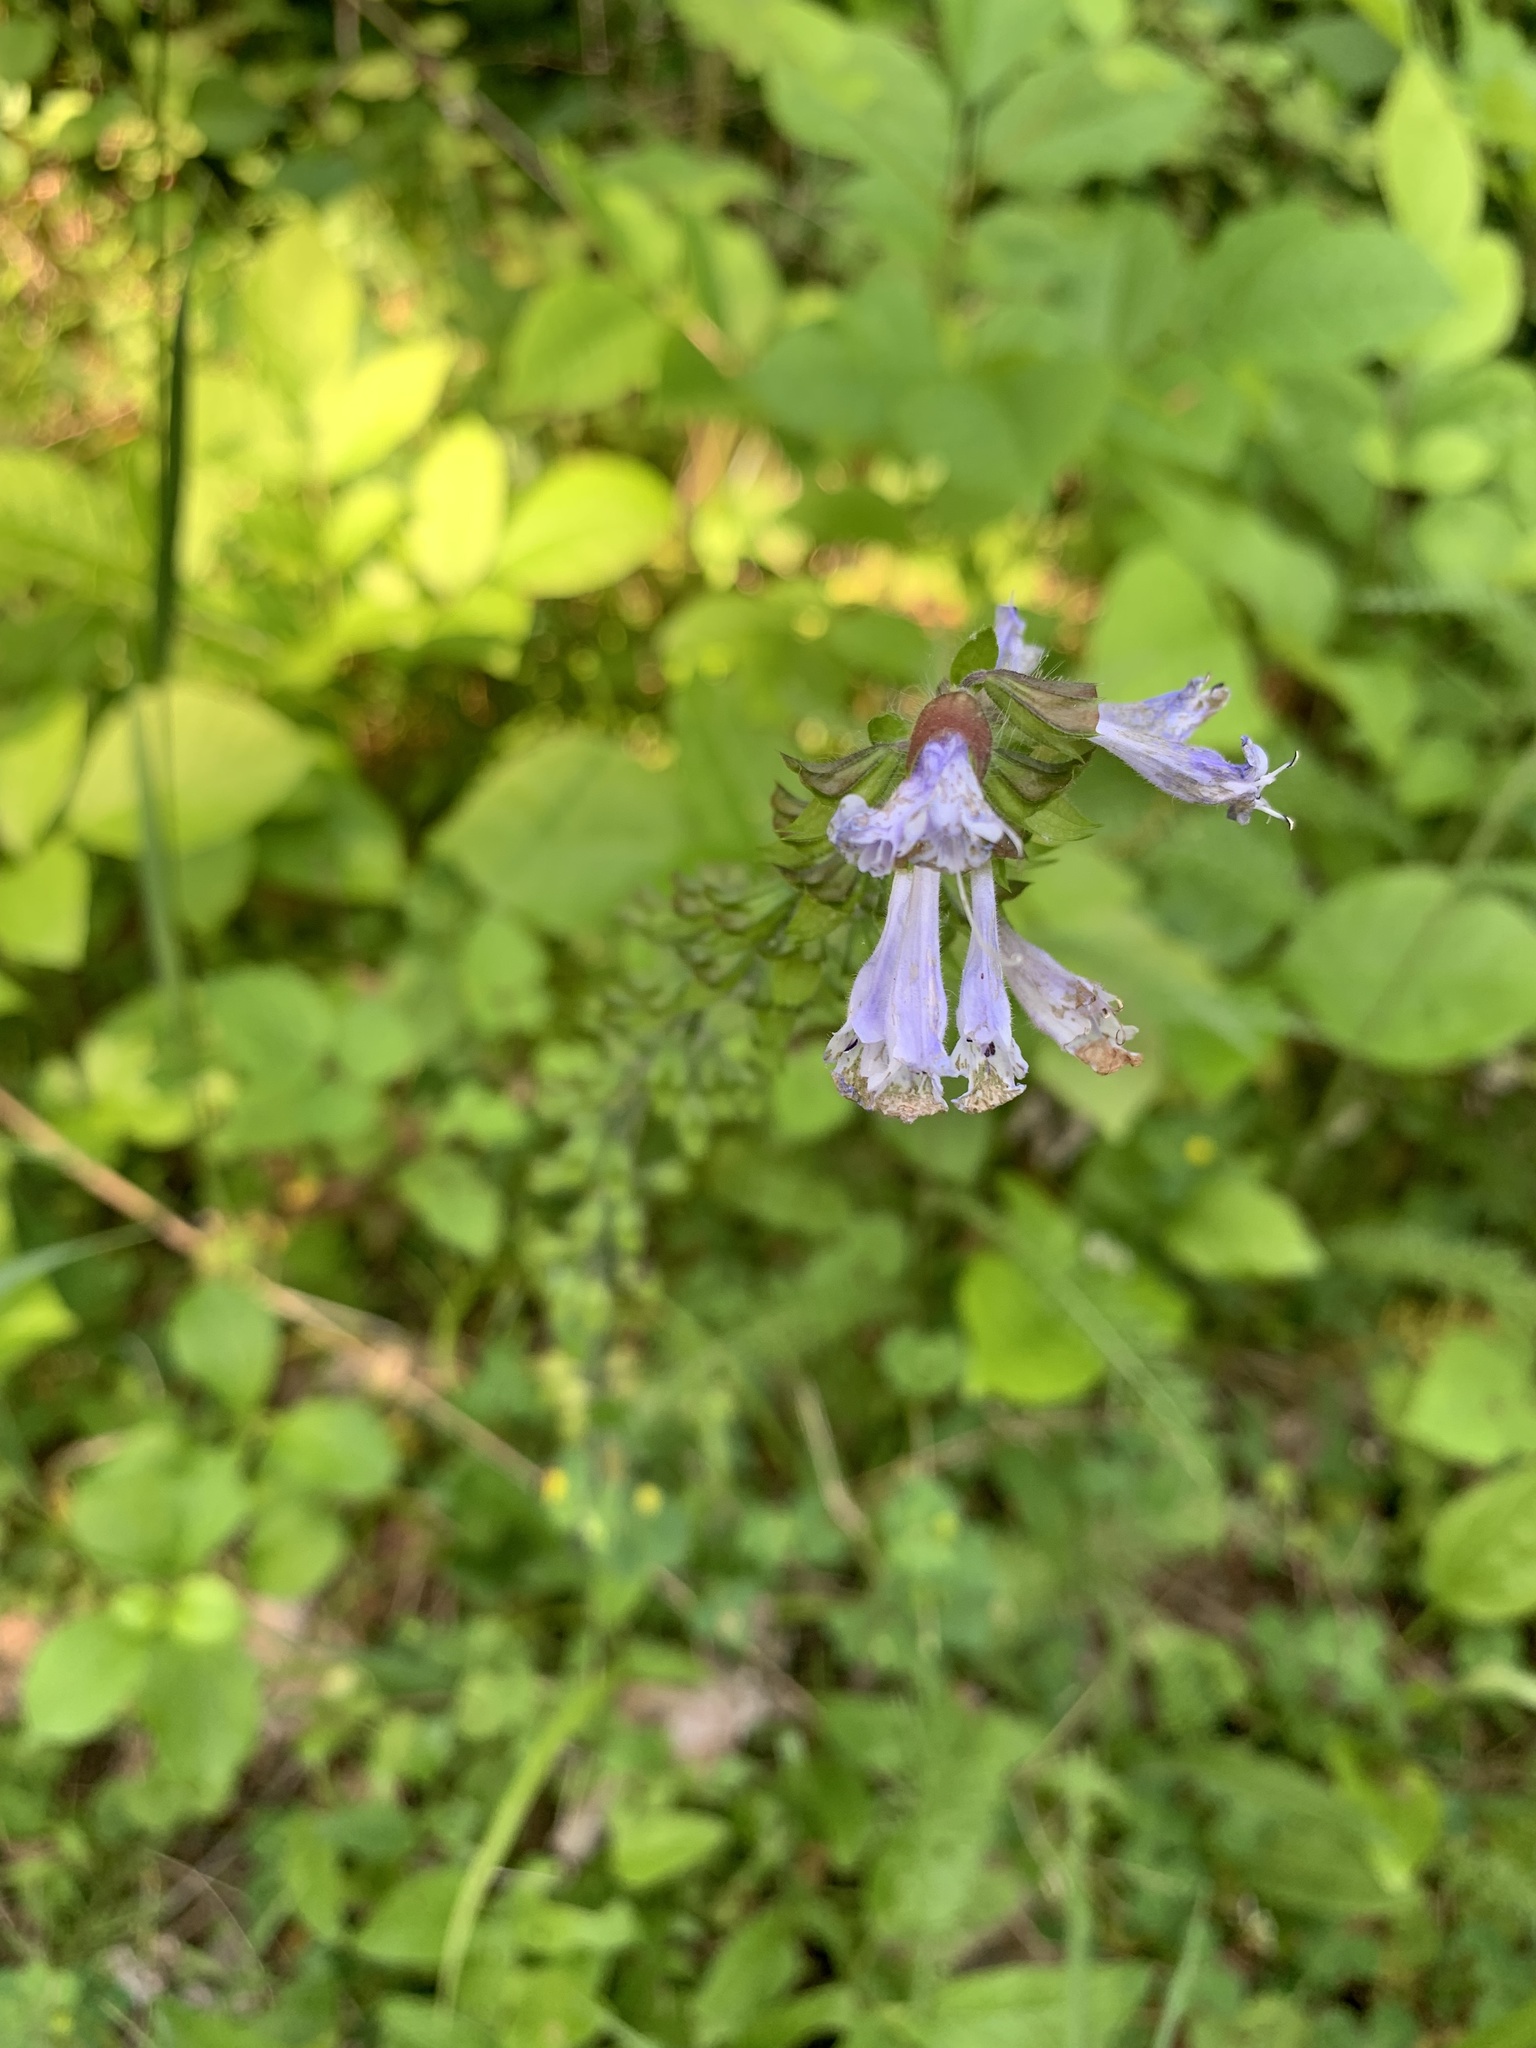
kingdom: Plantae
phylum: Tracheophyta
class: Magnoliopsida
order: Lamiales
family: Lamiaceae
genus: Salvia
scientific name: Salvia lyrata
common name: Cancerweed
